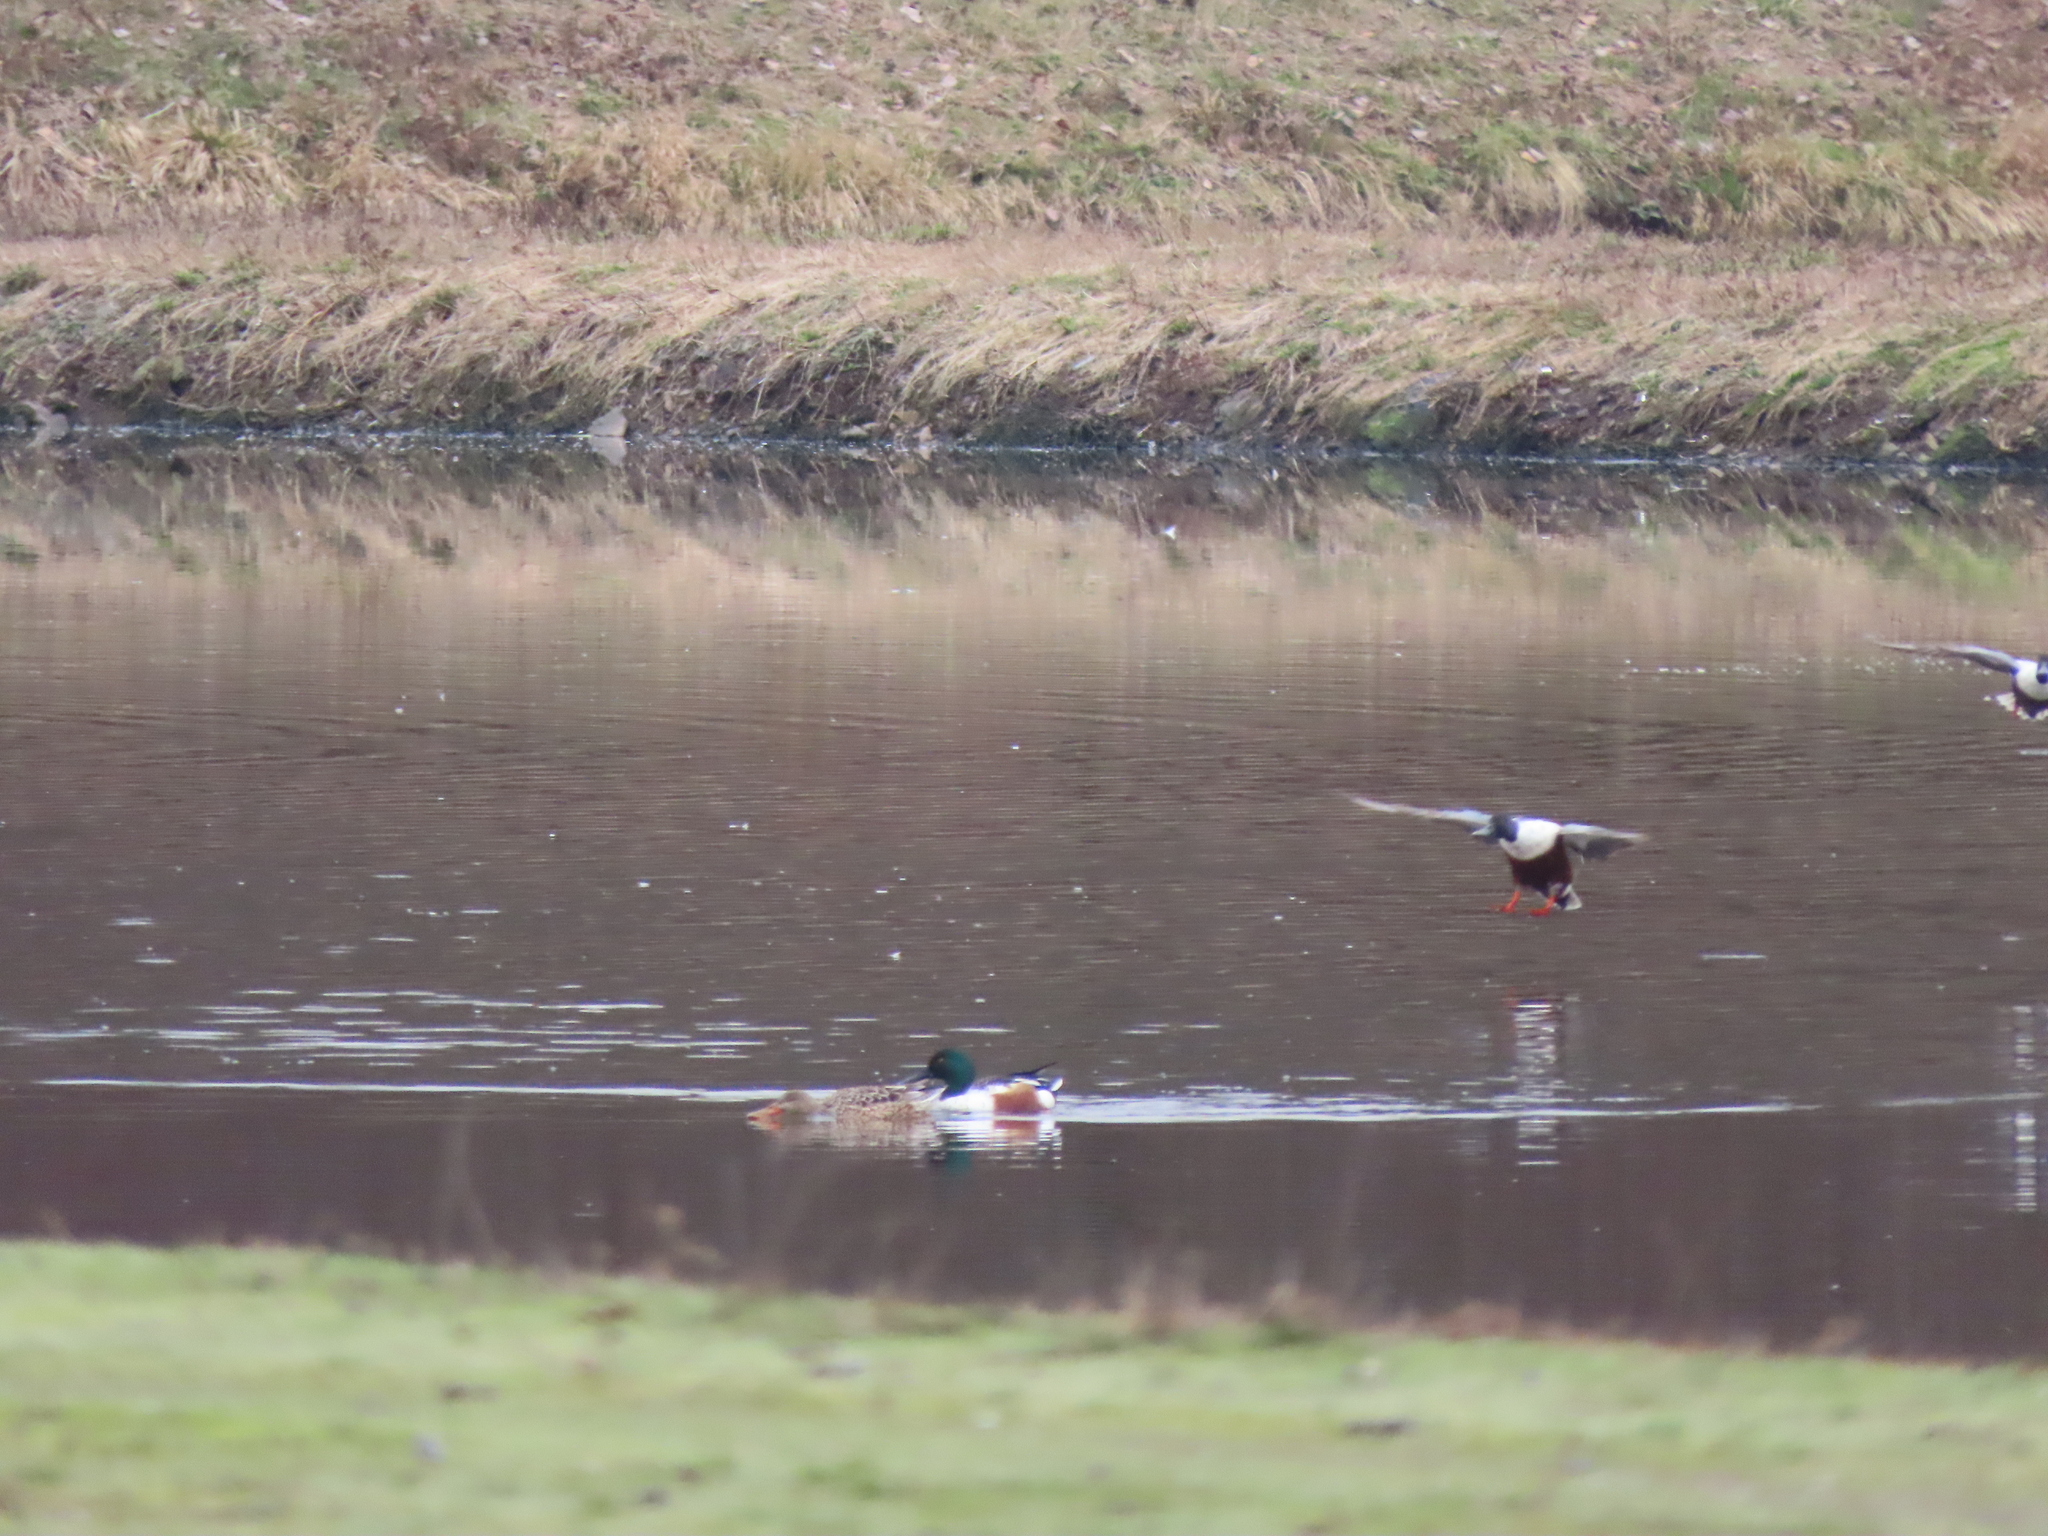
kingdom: Animalia
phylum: Chordata
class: Aves
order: Anseriformes
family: Anatidae
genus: Spatula
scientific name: Spatula clypeata
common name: Northern shoveler
